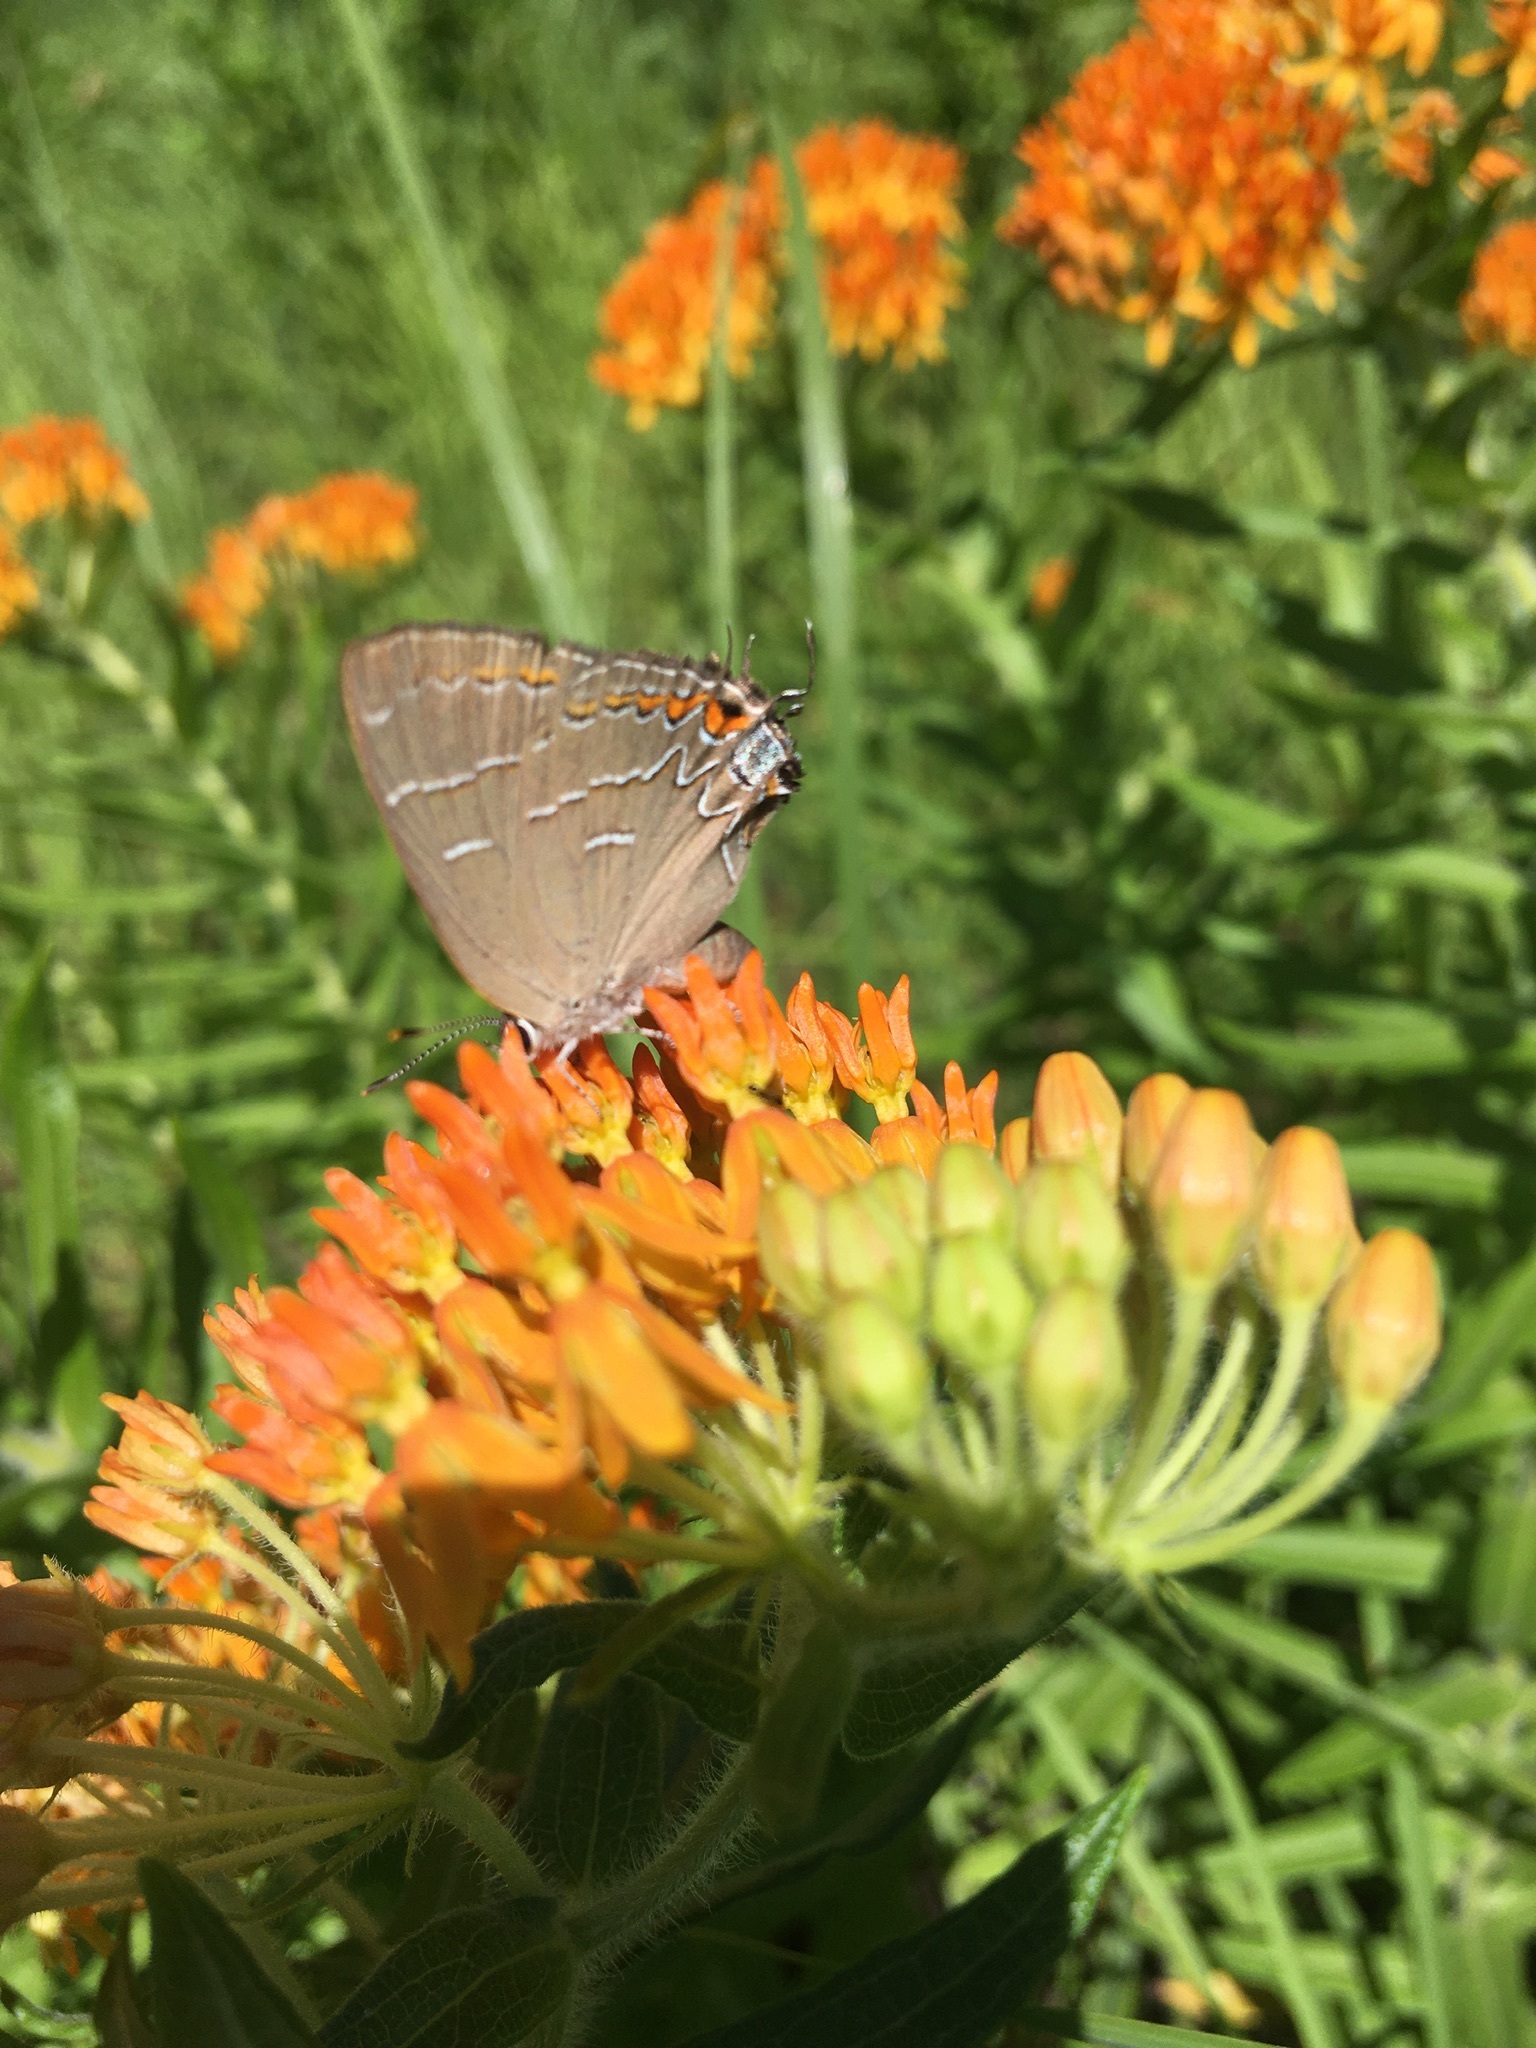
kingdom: Animalia
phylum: Arthropoda
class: Insecta
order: Lepidoptera
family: Lycaenidae
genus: Phaeostrymon
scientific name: Phaeostrymon alcestis
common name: Soapberry hairstreak
